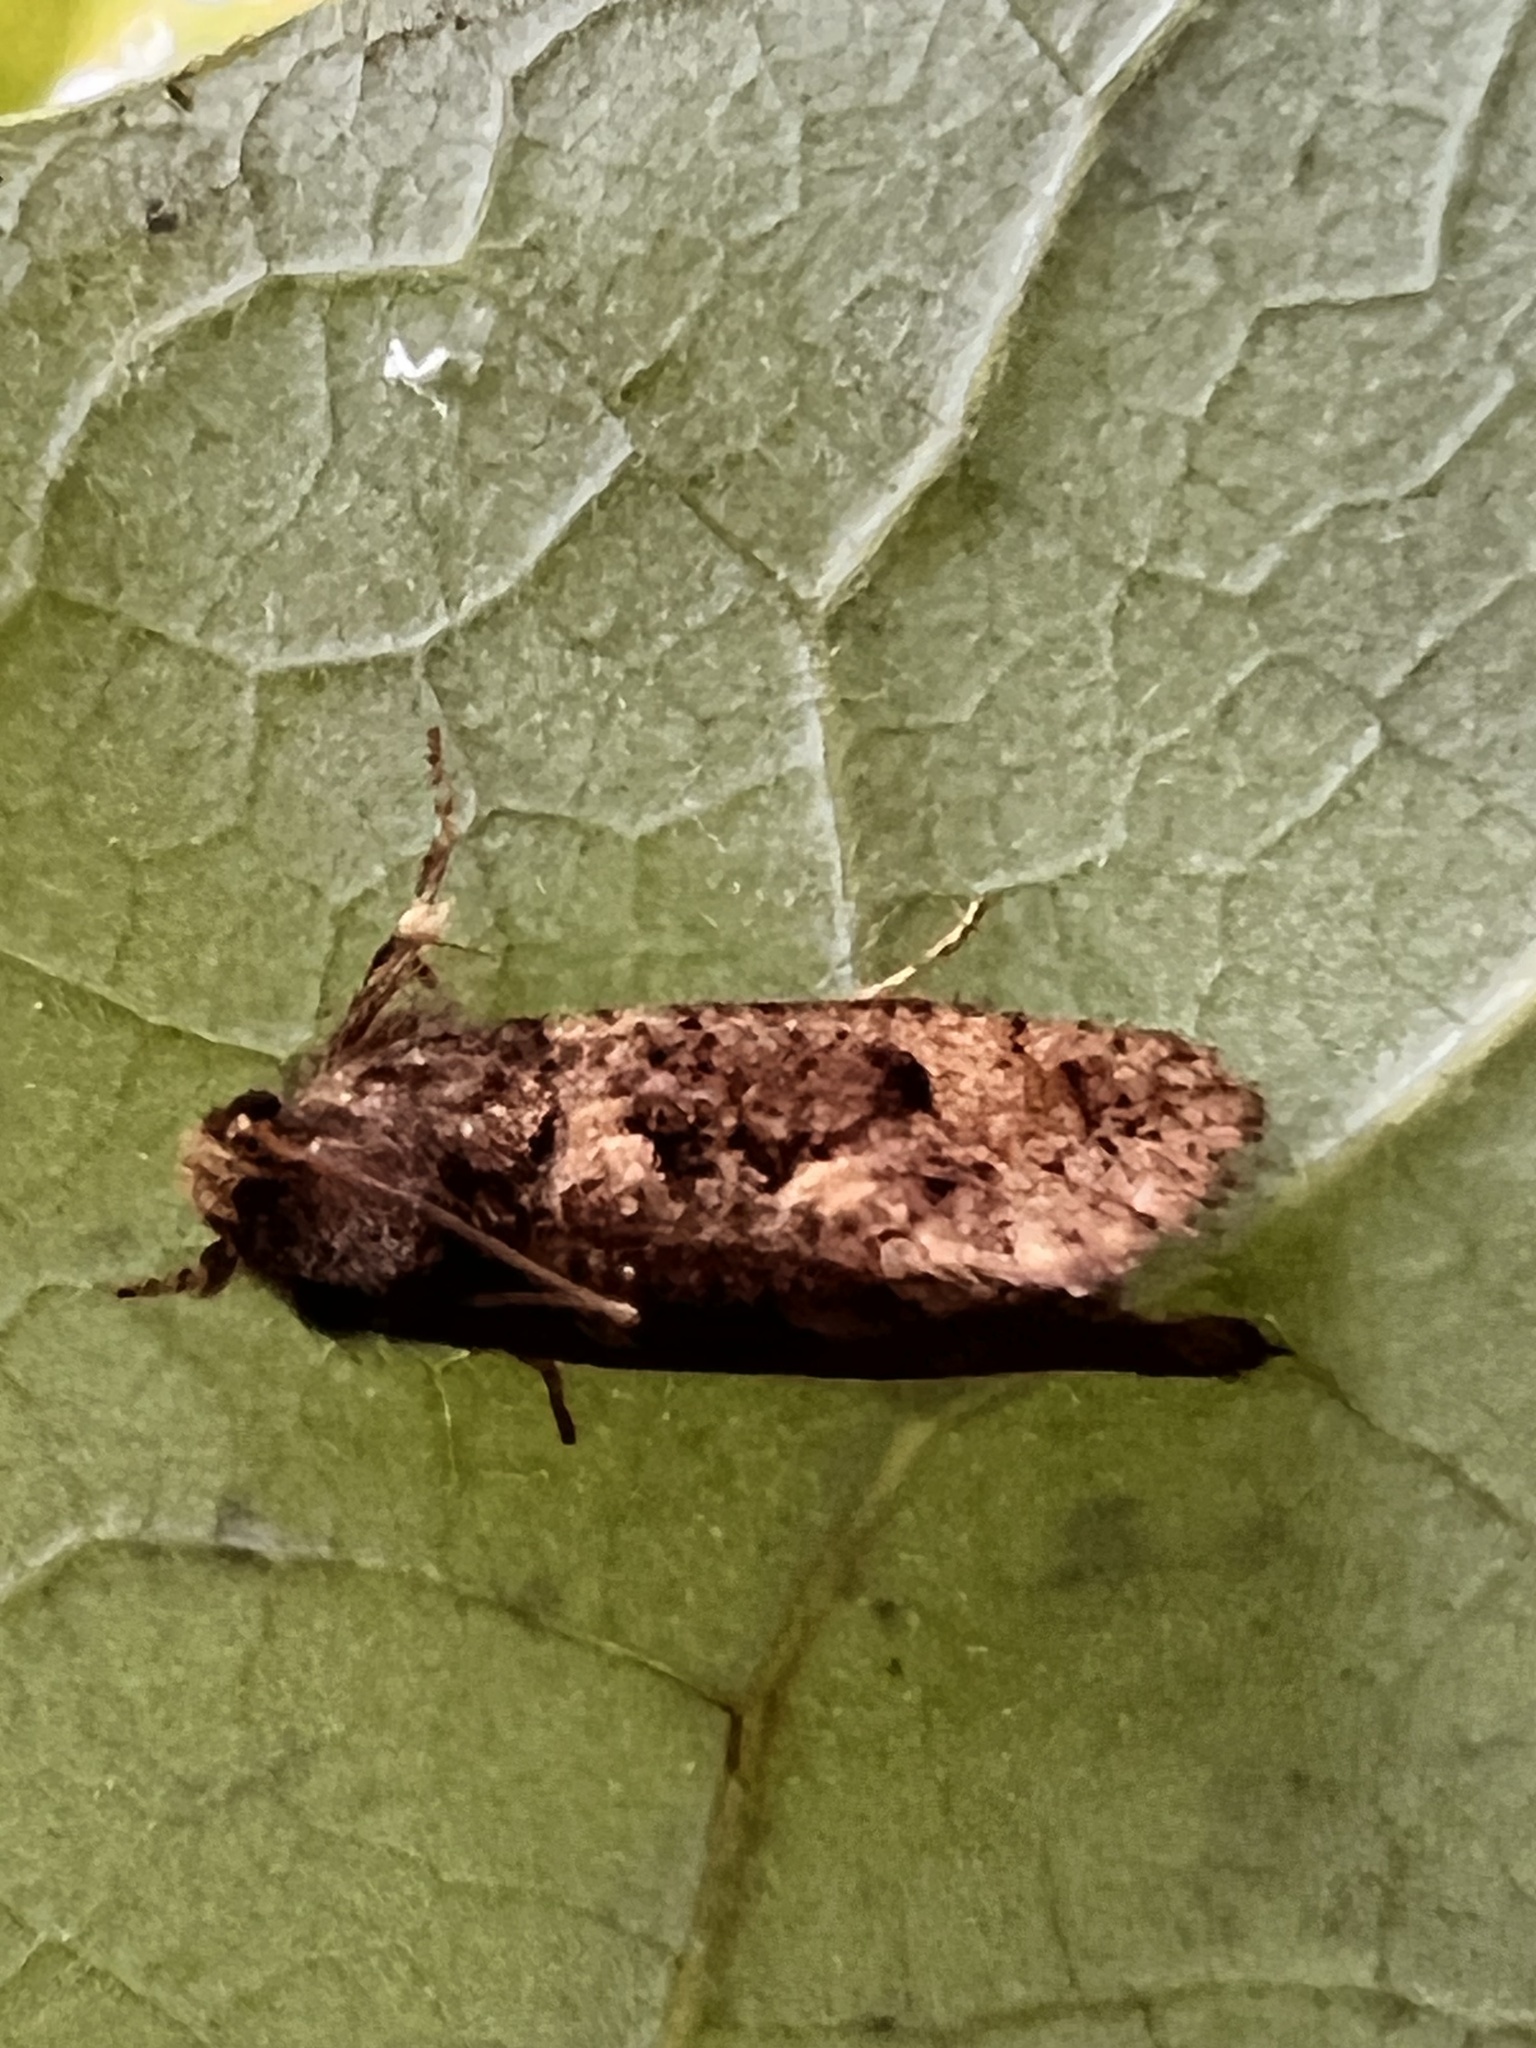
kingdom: Animalia
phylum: Arthropoda
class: Insecta
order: Lepidoptera
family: Tineidae
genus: Acrolophus
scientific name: Acrolophus mora
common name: Dark acrolophus
